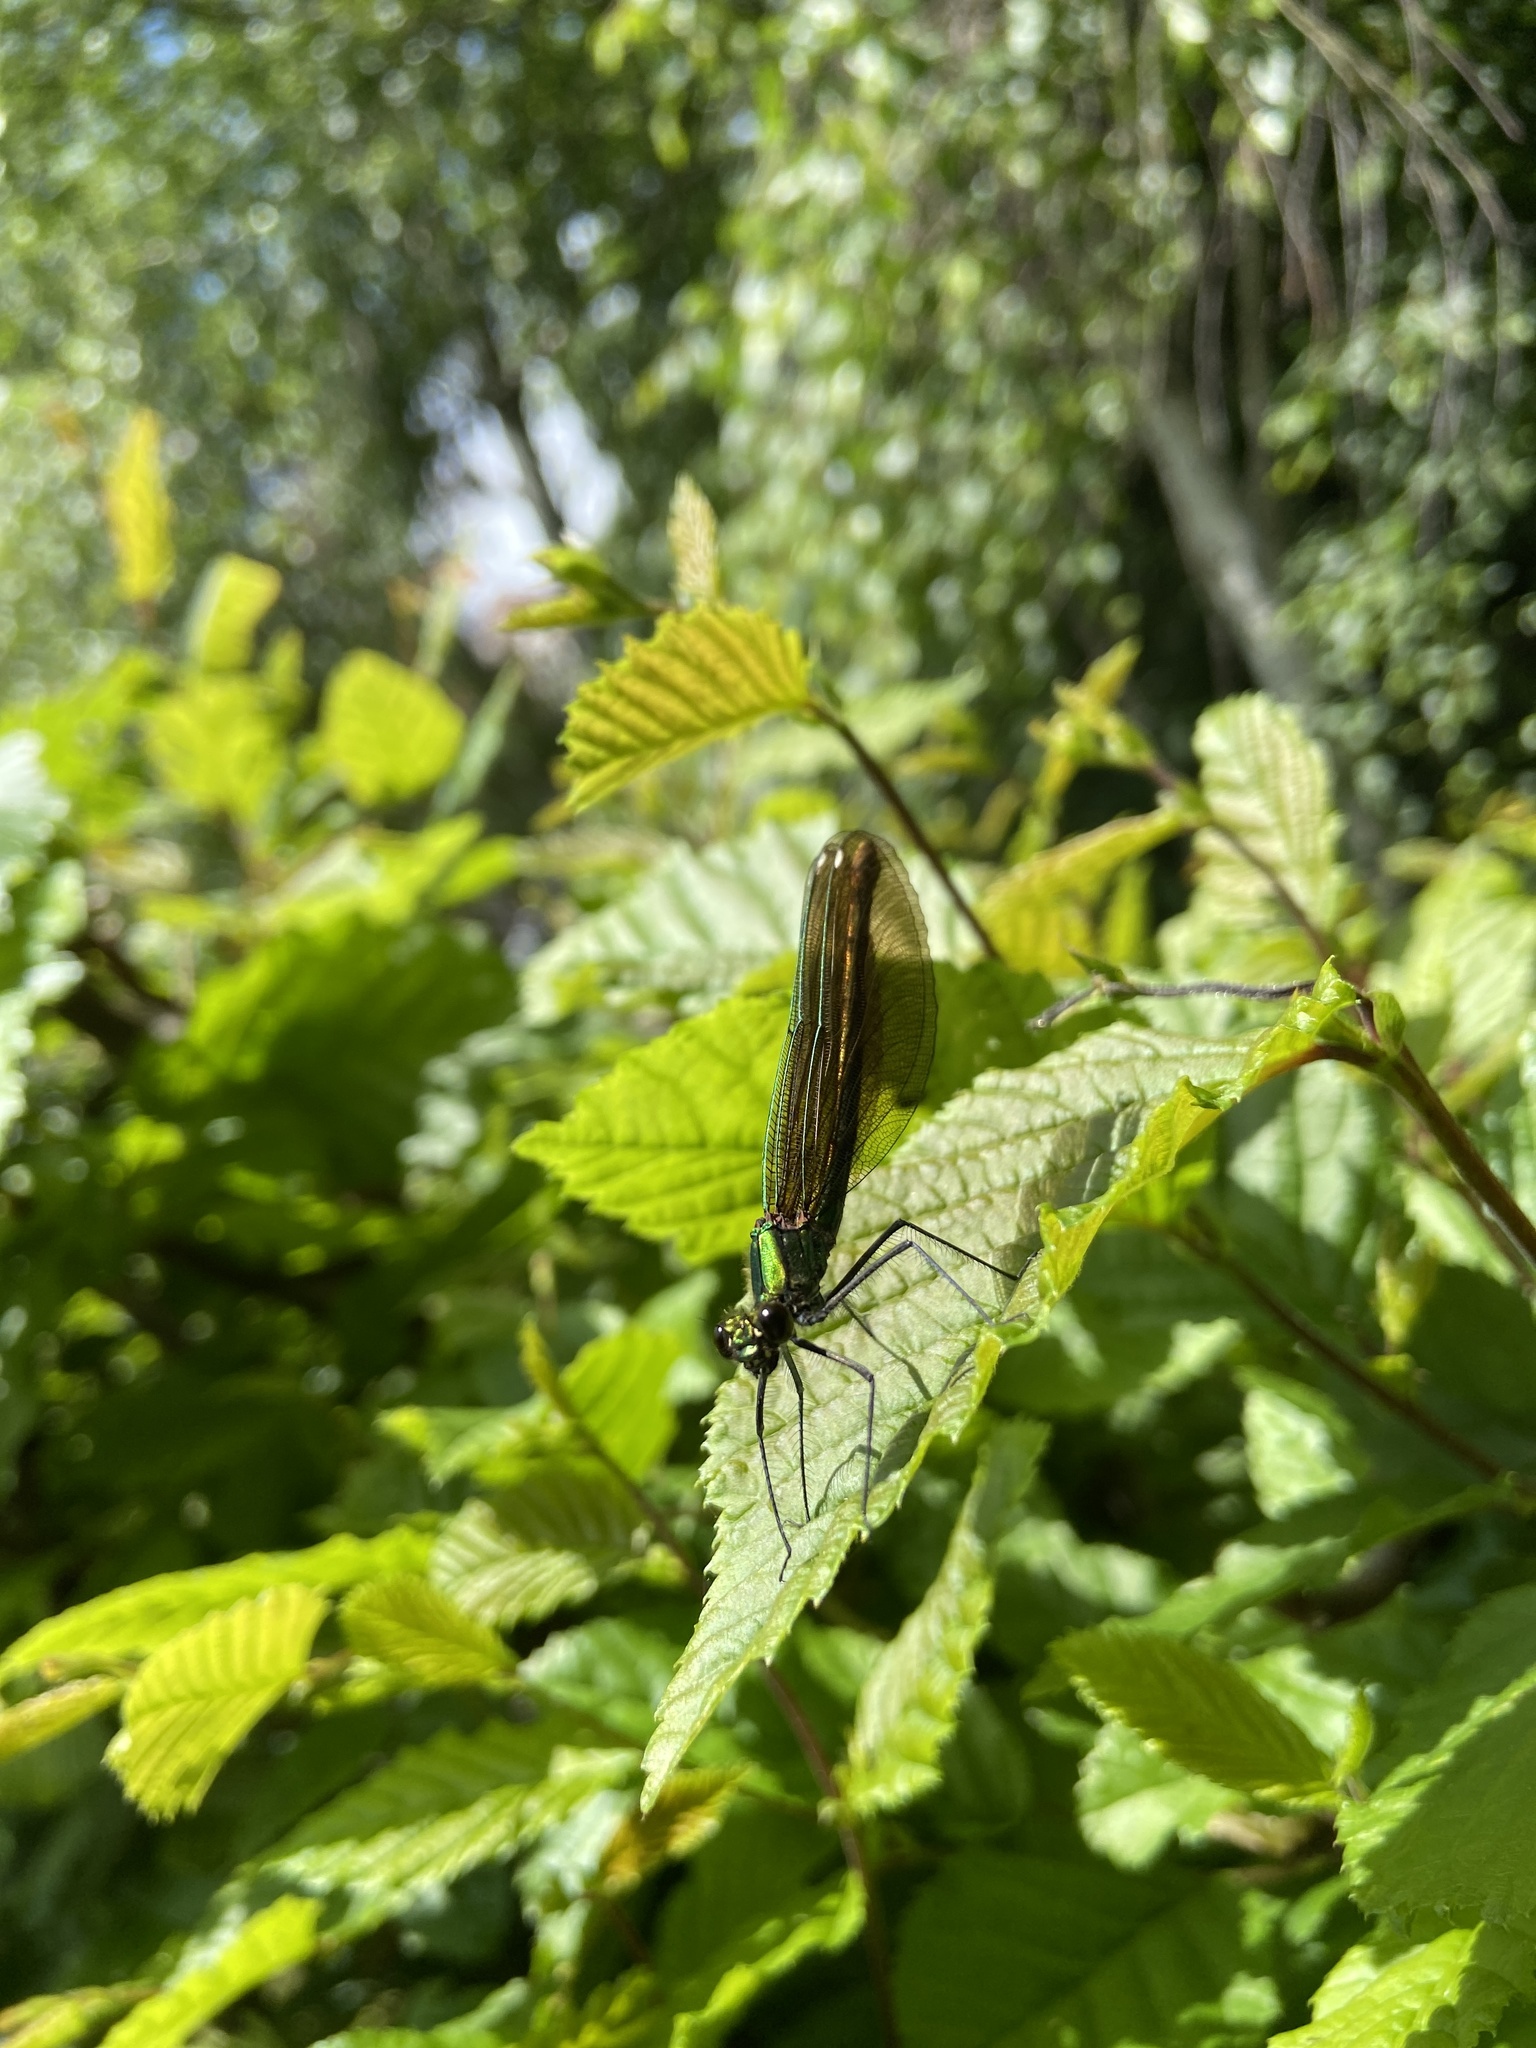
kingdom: Animalia
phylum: Arthropoda
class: Insecta
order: Odonata
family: Calopterygidae
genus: Calopteryx
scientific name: Calopteryx virgo
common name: Beautiful demoiselle
